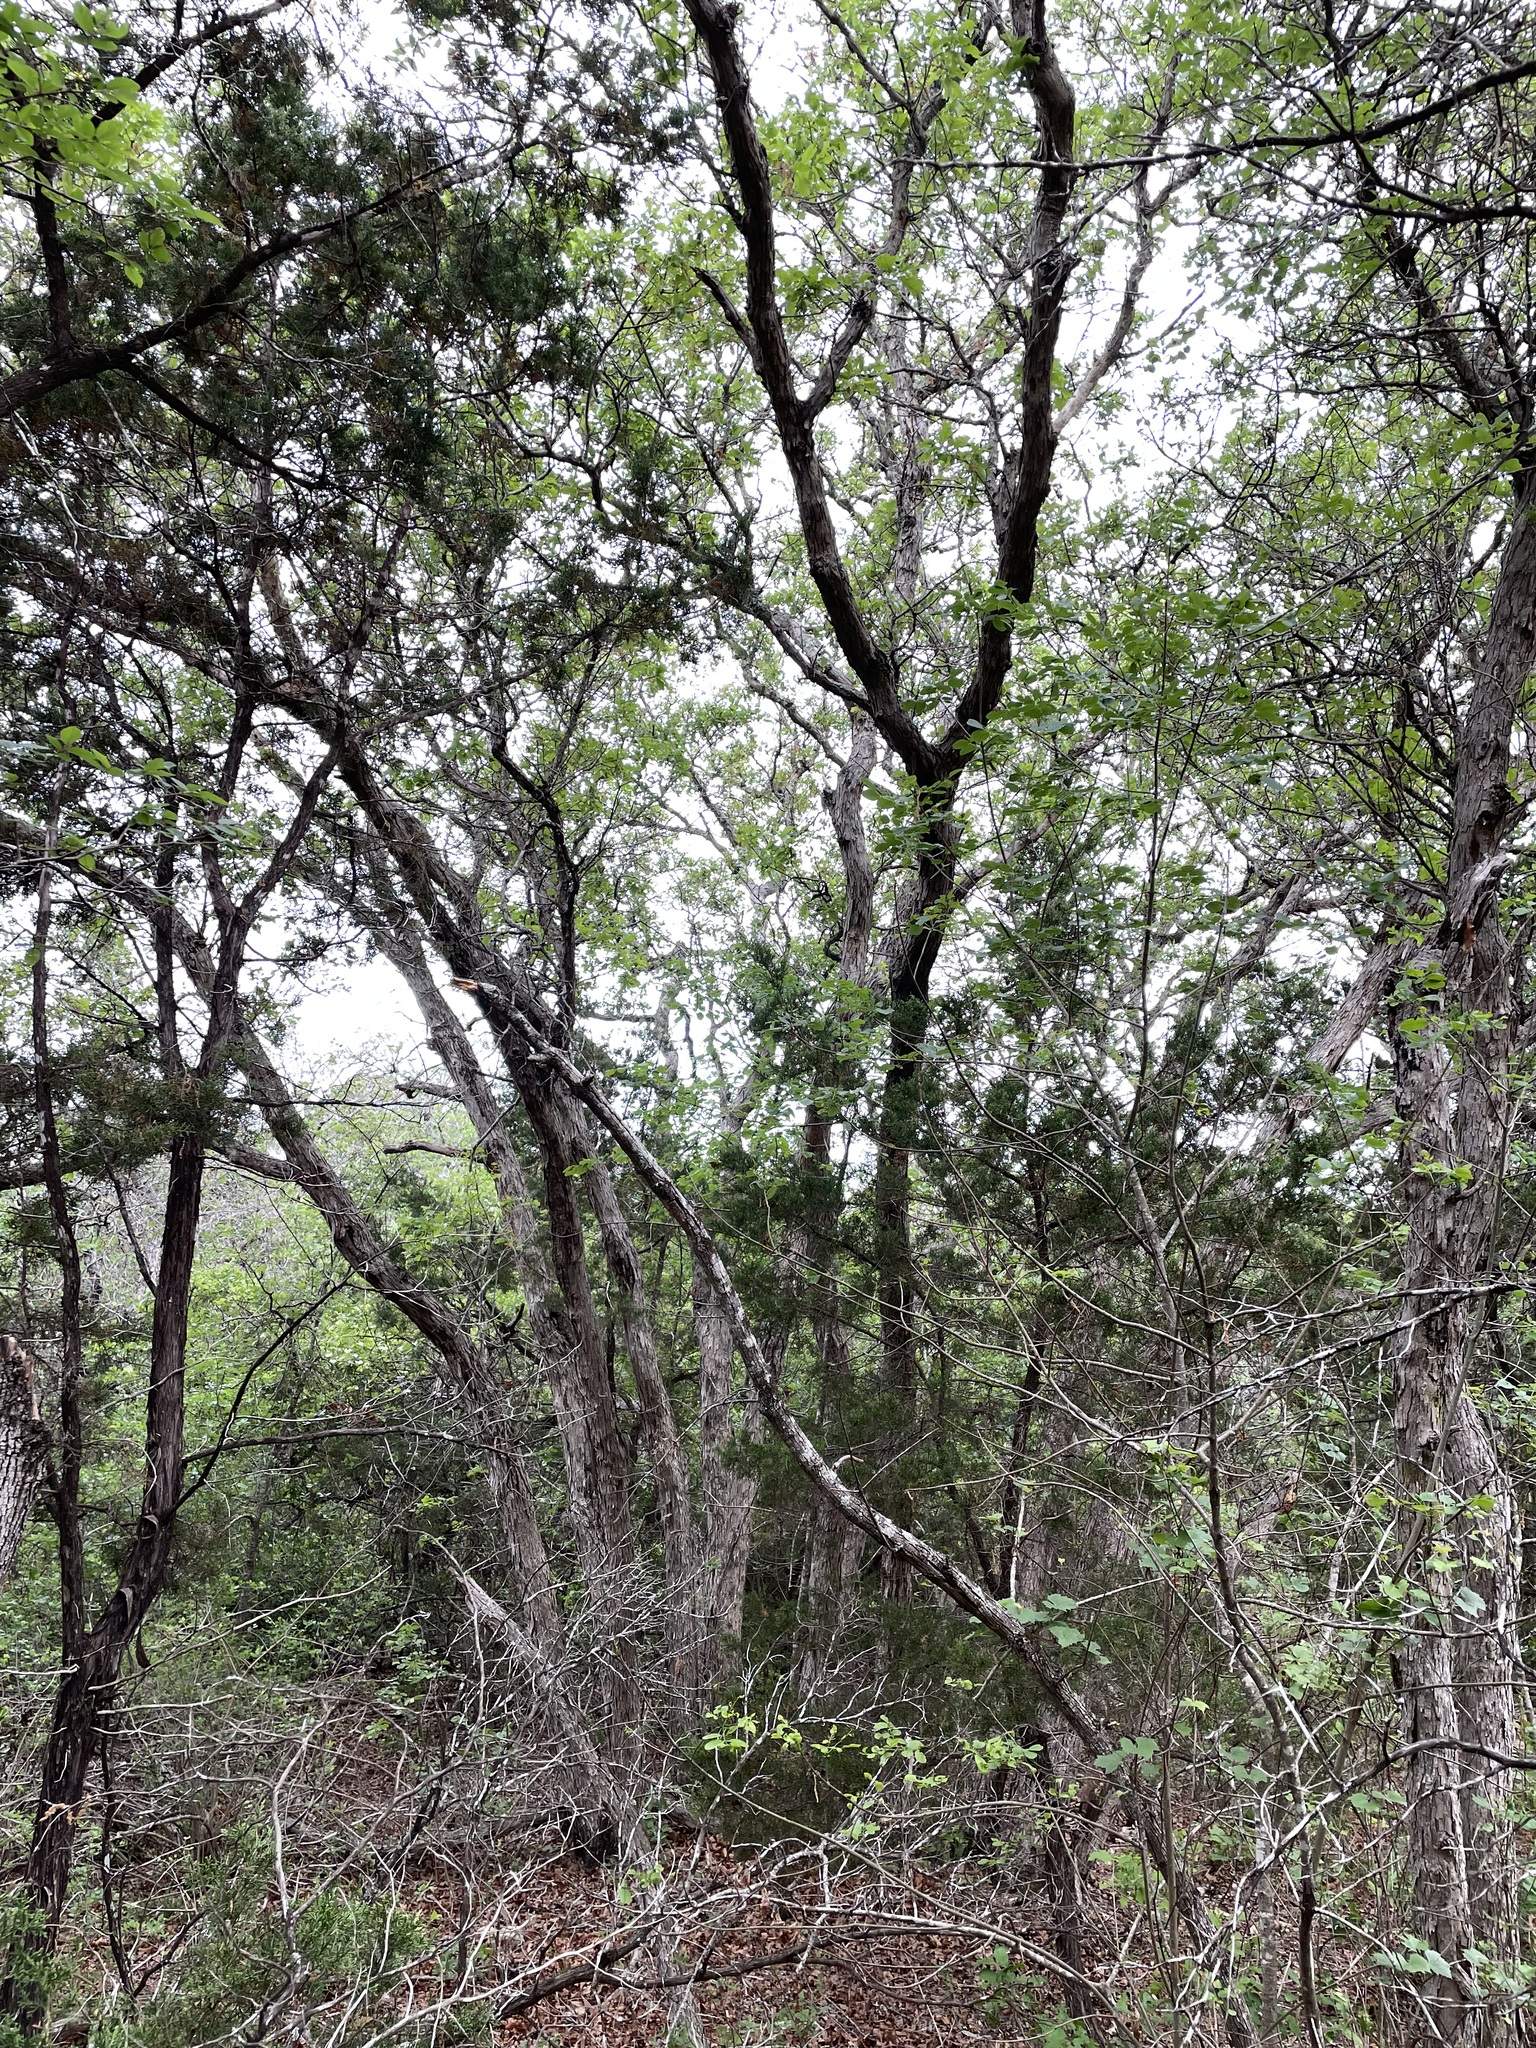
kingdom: Plantae
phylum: Tracheophyta
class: Magnoliopsida
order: Fagales
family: Fagaceae
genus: Quercus
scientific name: Quercus sinuata
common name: Durand oak
